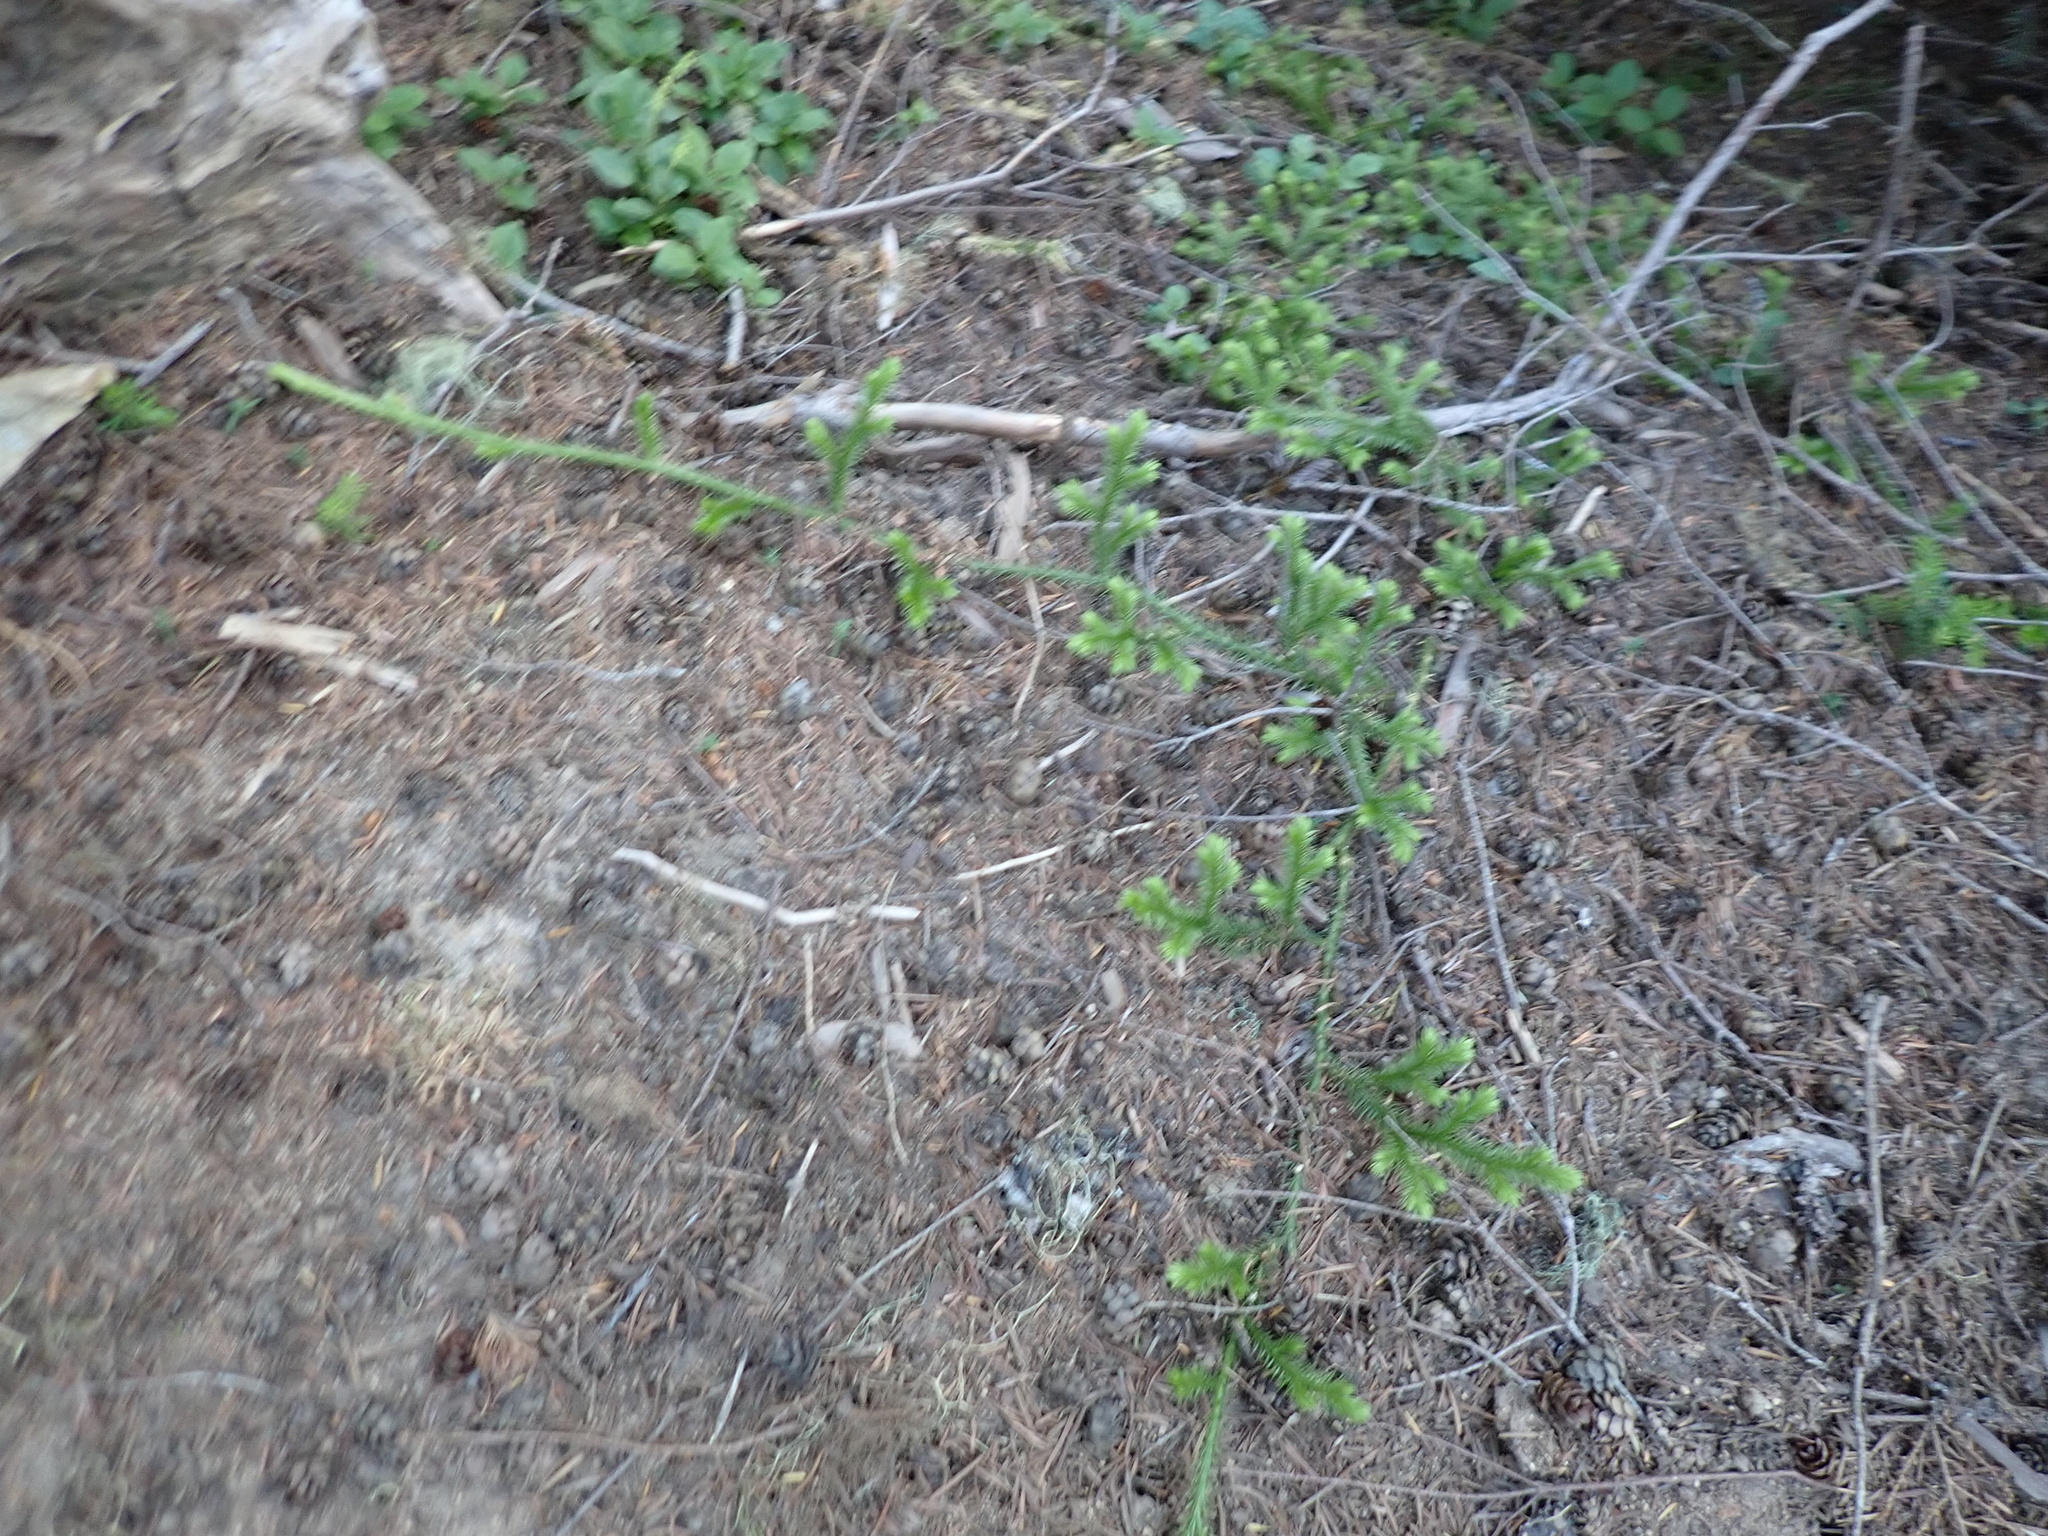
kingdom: Plantae
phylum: Tracheophyta
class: Lycopodiopsida
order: Lycopodiales
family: Lycopodiaceae
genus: Lycopodium
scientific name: Lycopodium clavatum
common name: Stag's-horn clubmoss
